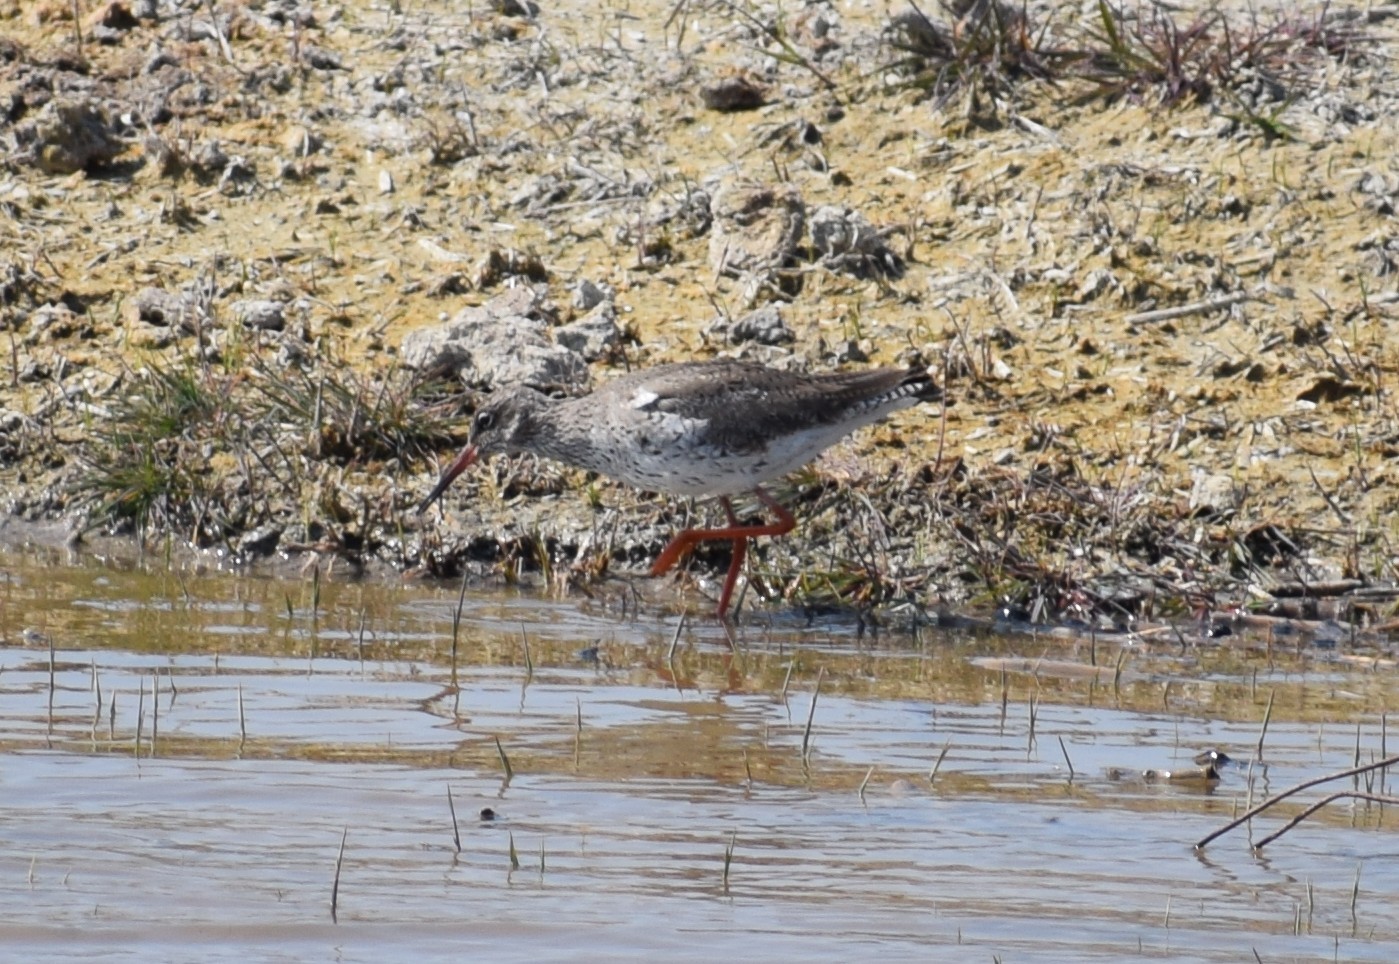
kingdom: Animalia
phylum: Chordata
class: Aves
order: Charadriiformes
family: Scolopacidae
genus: Tringa
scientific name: Tringa totanus
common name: Common redshank
